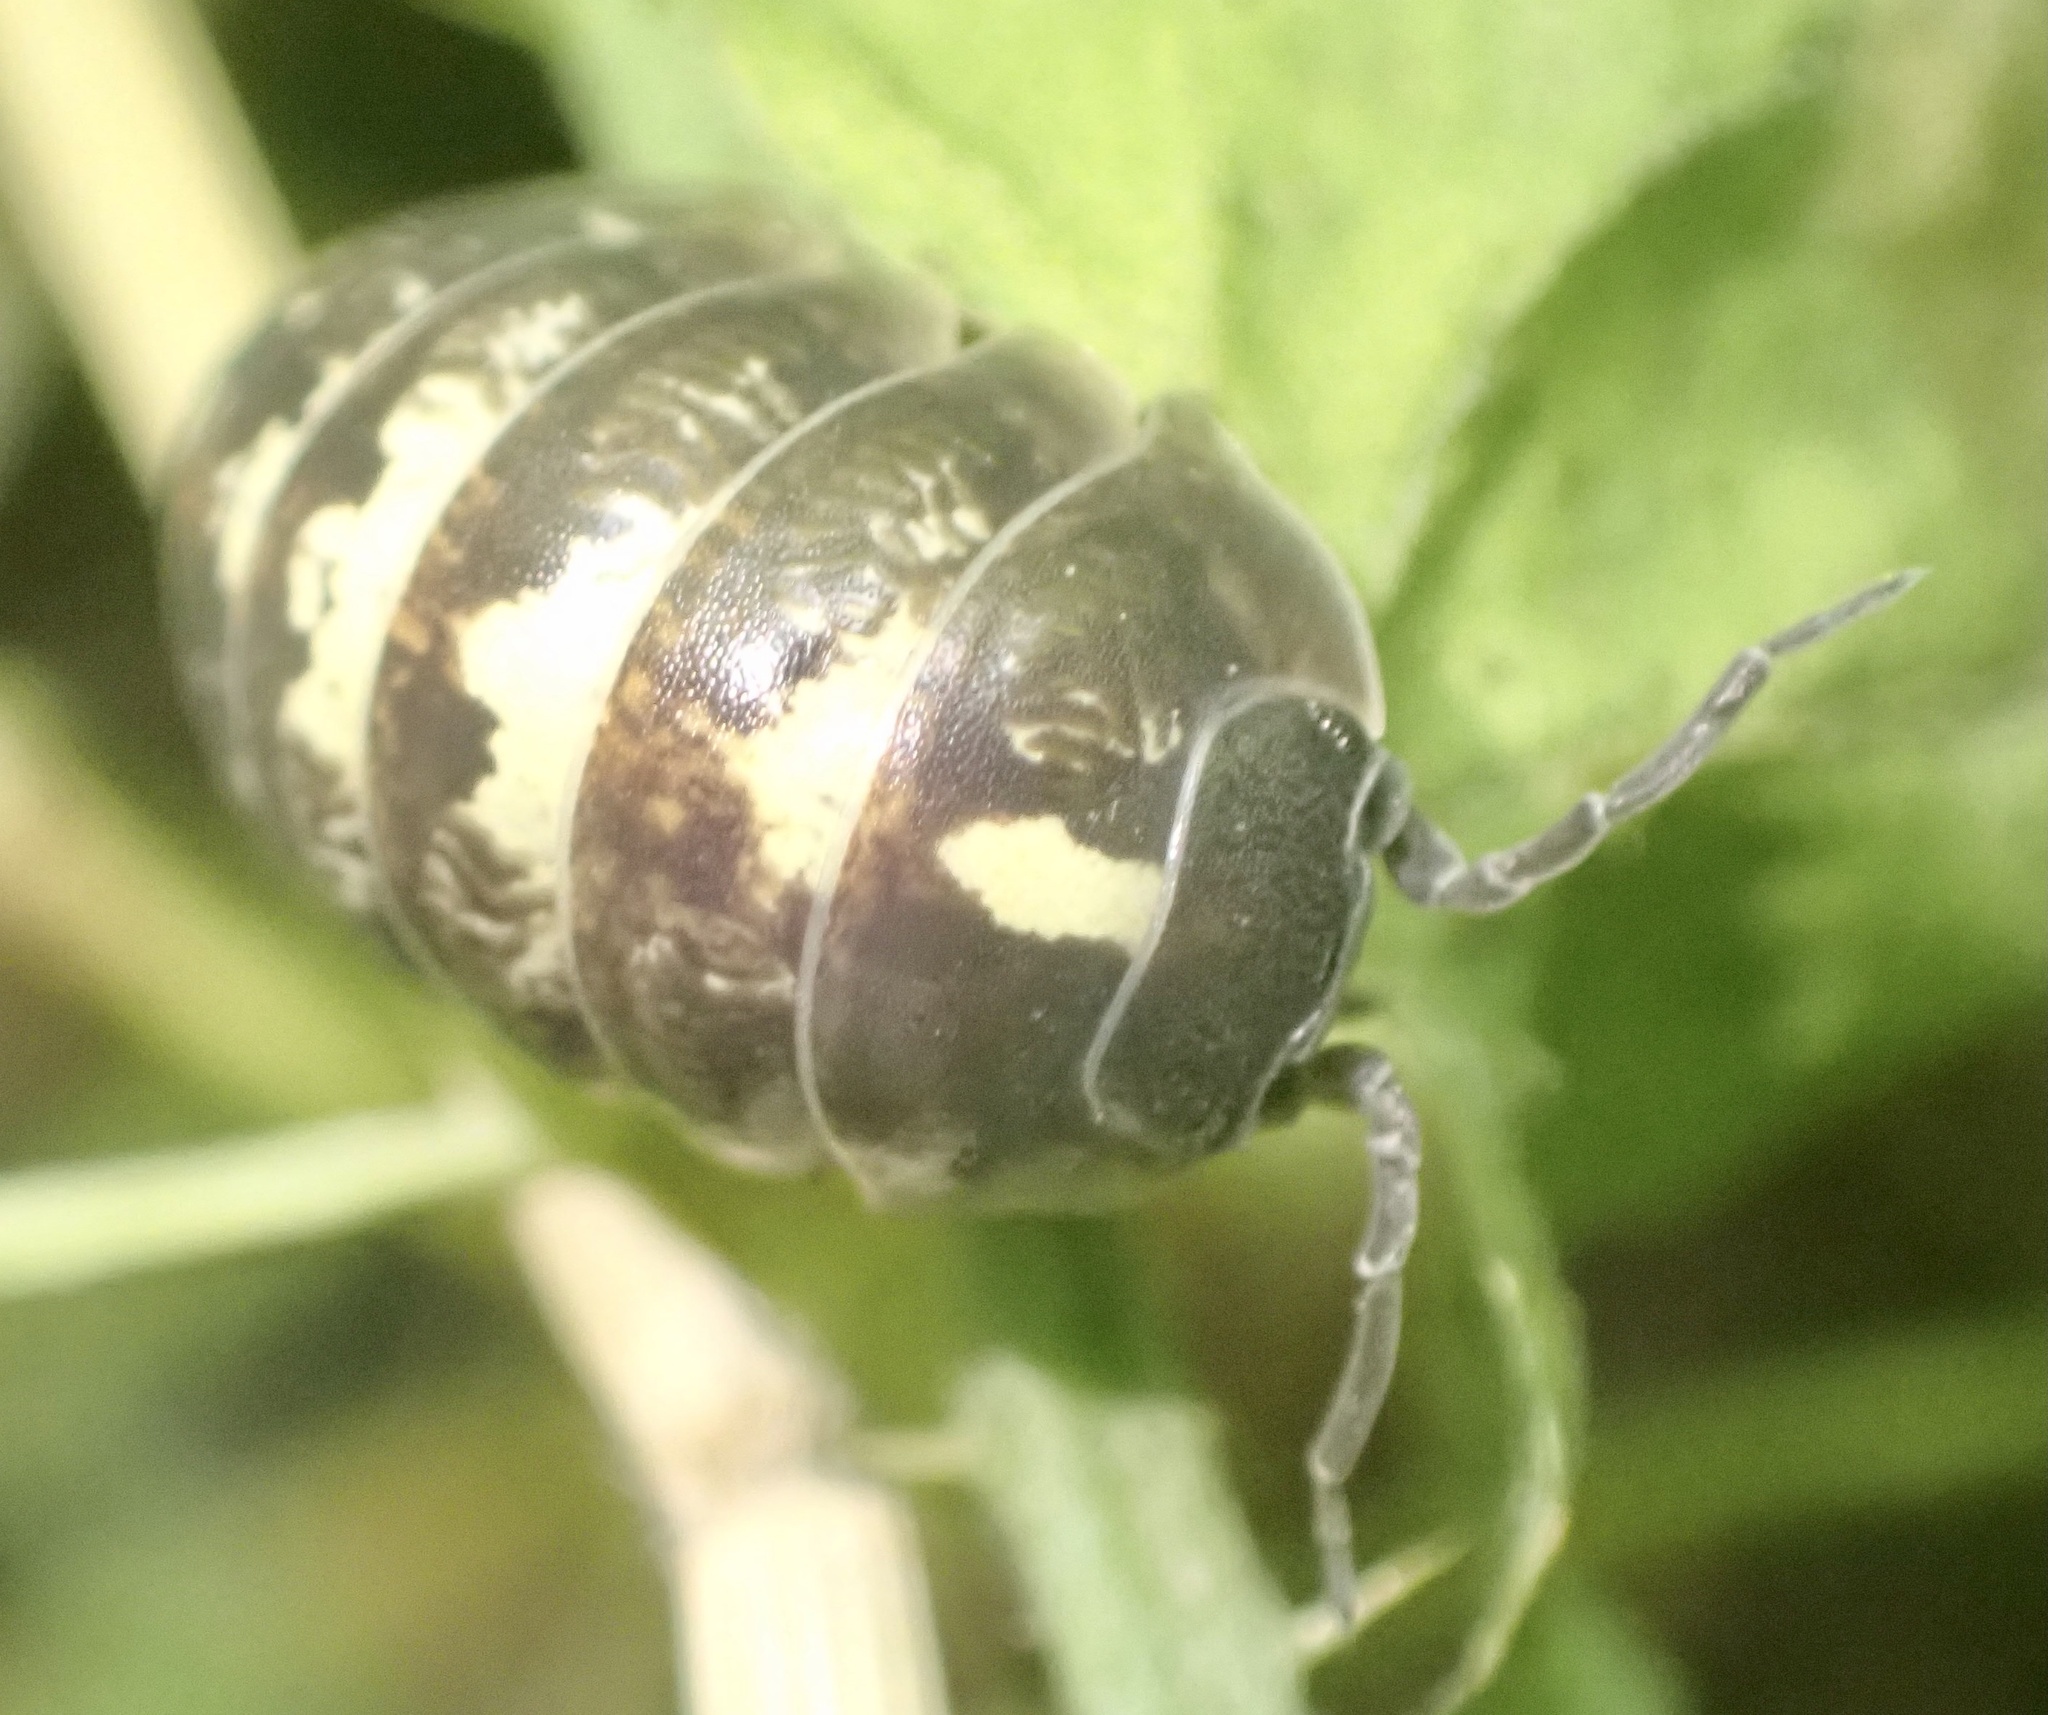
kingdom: Animalia
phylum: Arthropoda
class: Malacostraca
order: Isopoda
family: Armadillidiidae
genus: Armadillidium
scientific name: Armadillidium vulgare
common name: Common pill woodlouse
